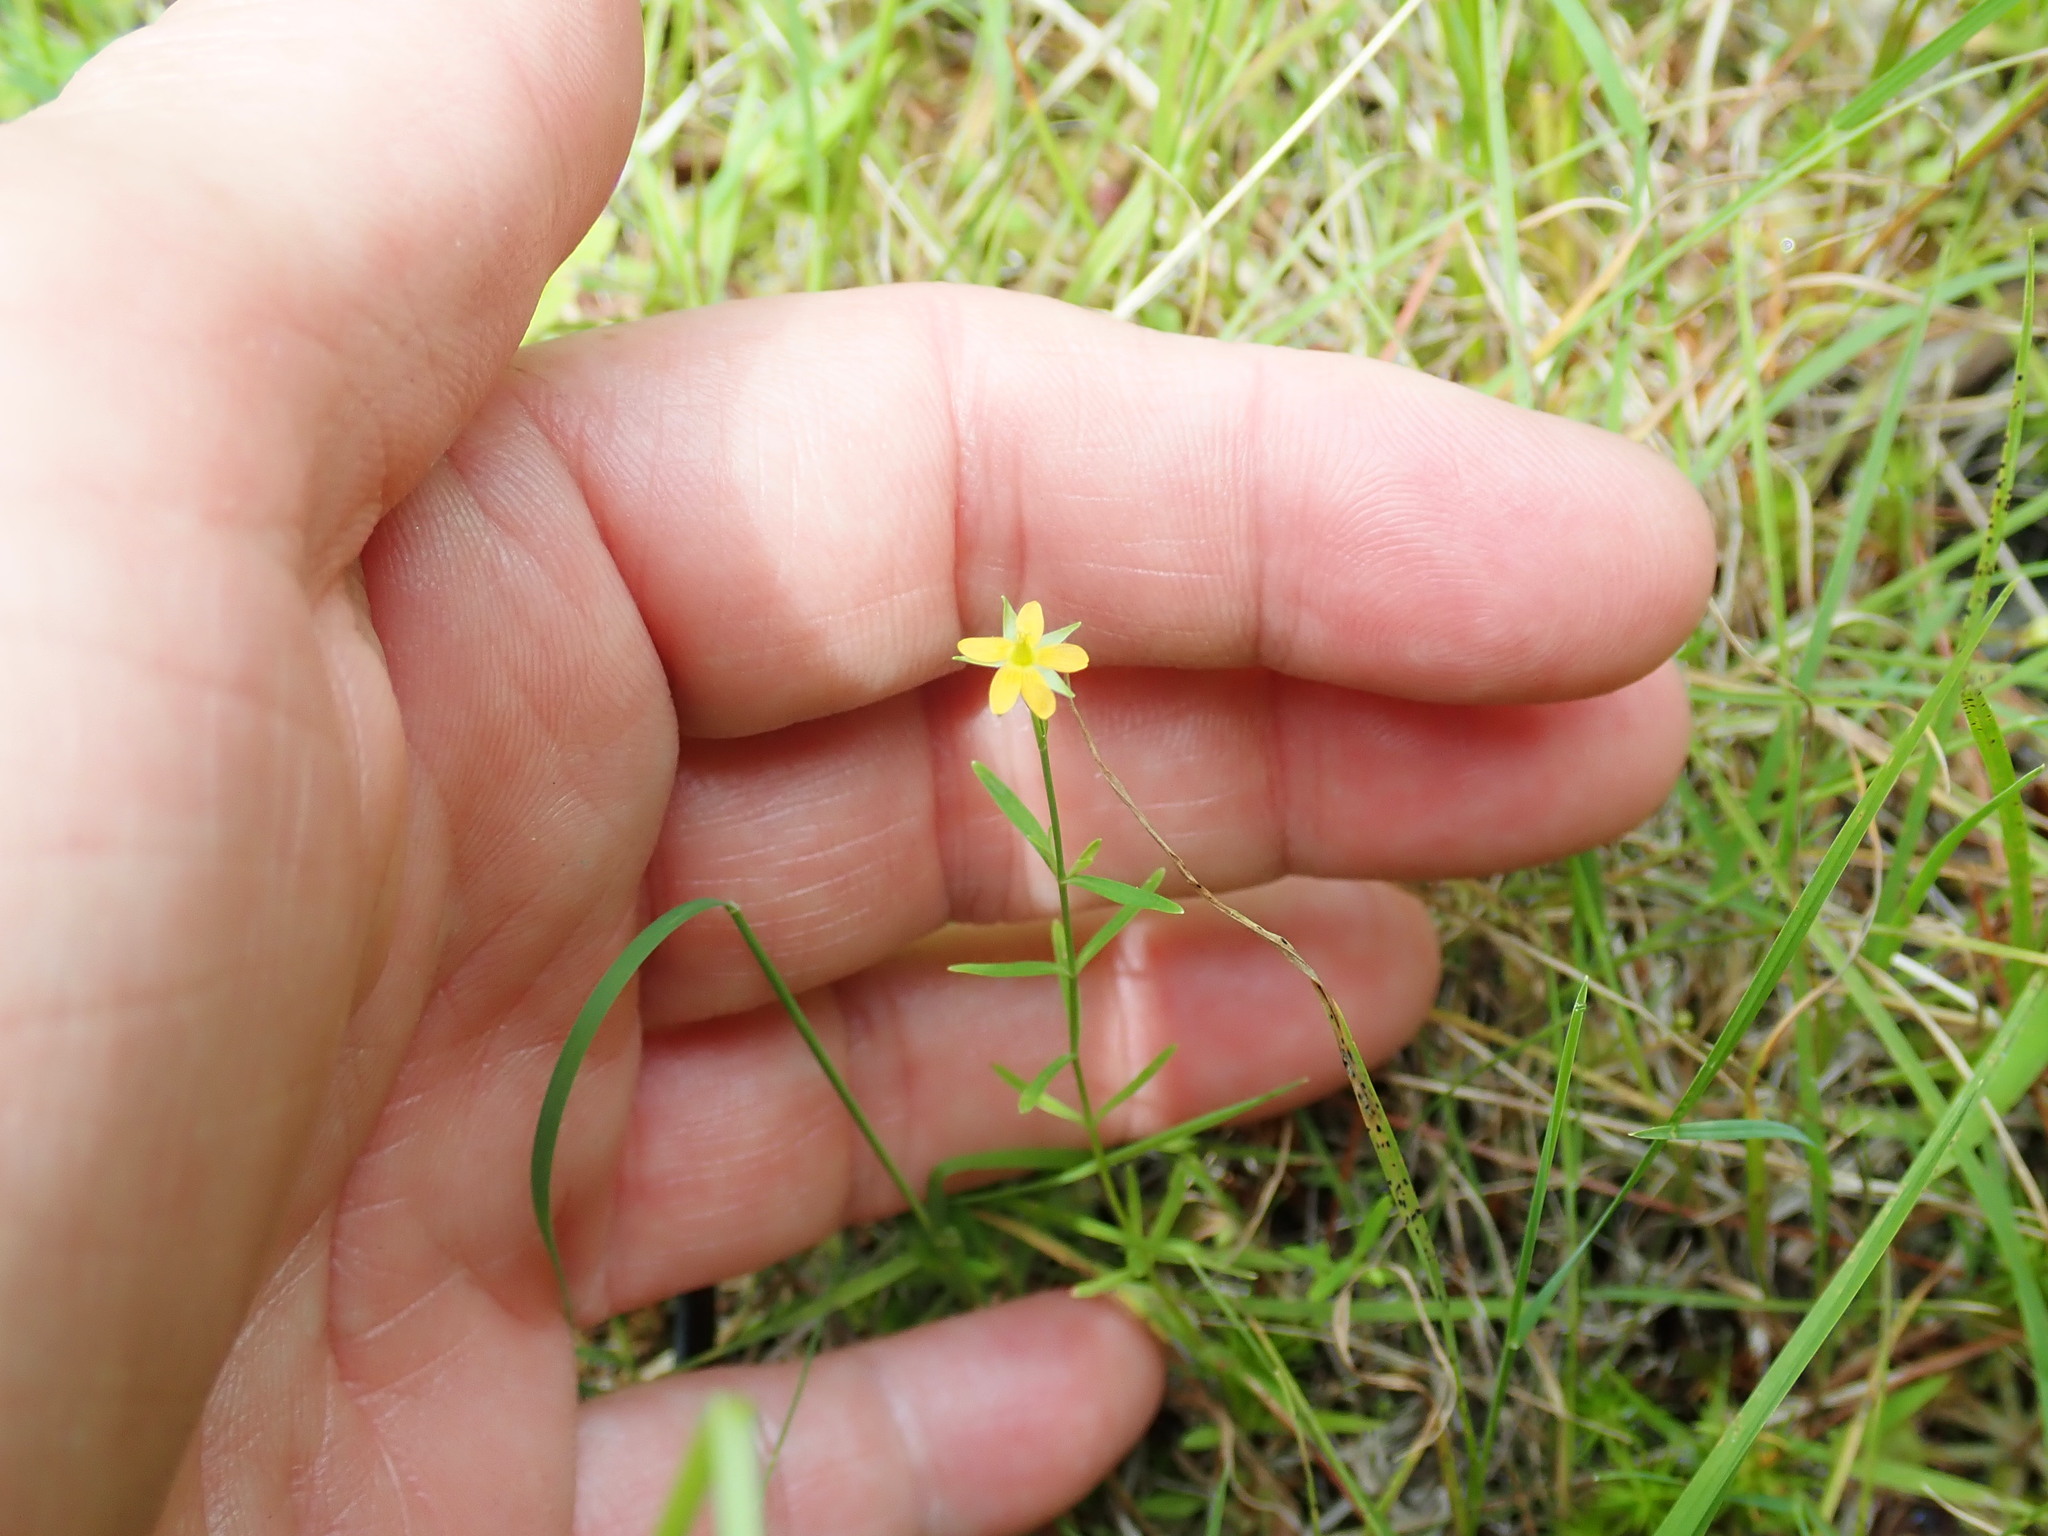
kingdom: Plantae
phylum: Tracheophyta
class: Magnoliopsida
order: Malpighiales
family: Hypericaceae
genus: Hypericum
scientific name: Hypericum canadense
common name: Irish st. john's-wort
